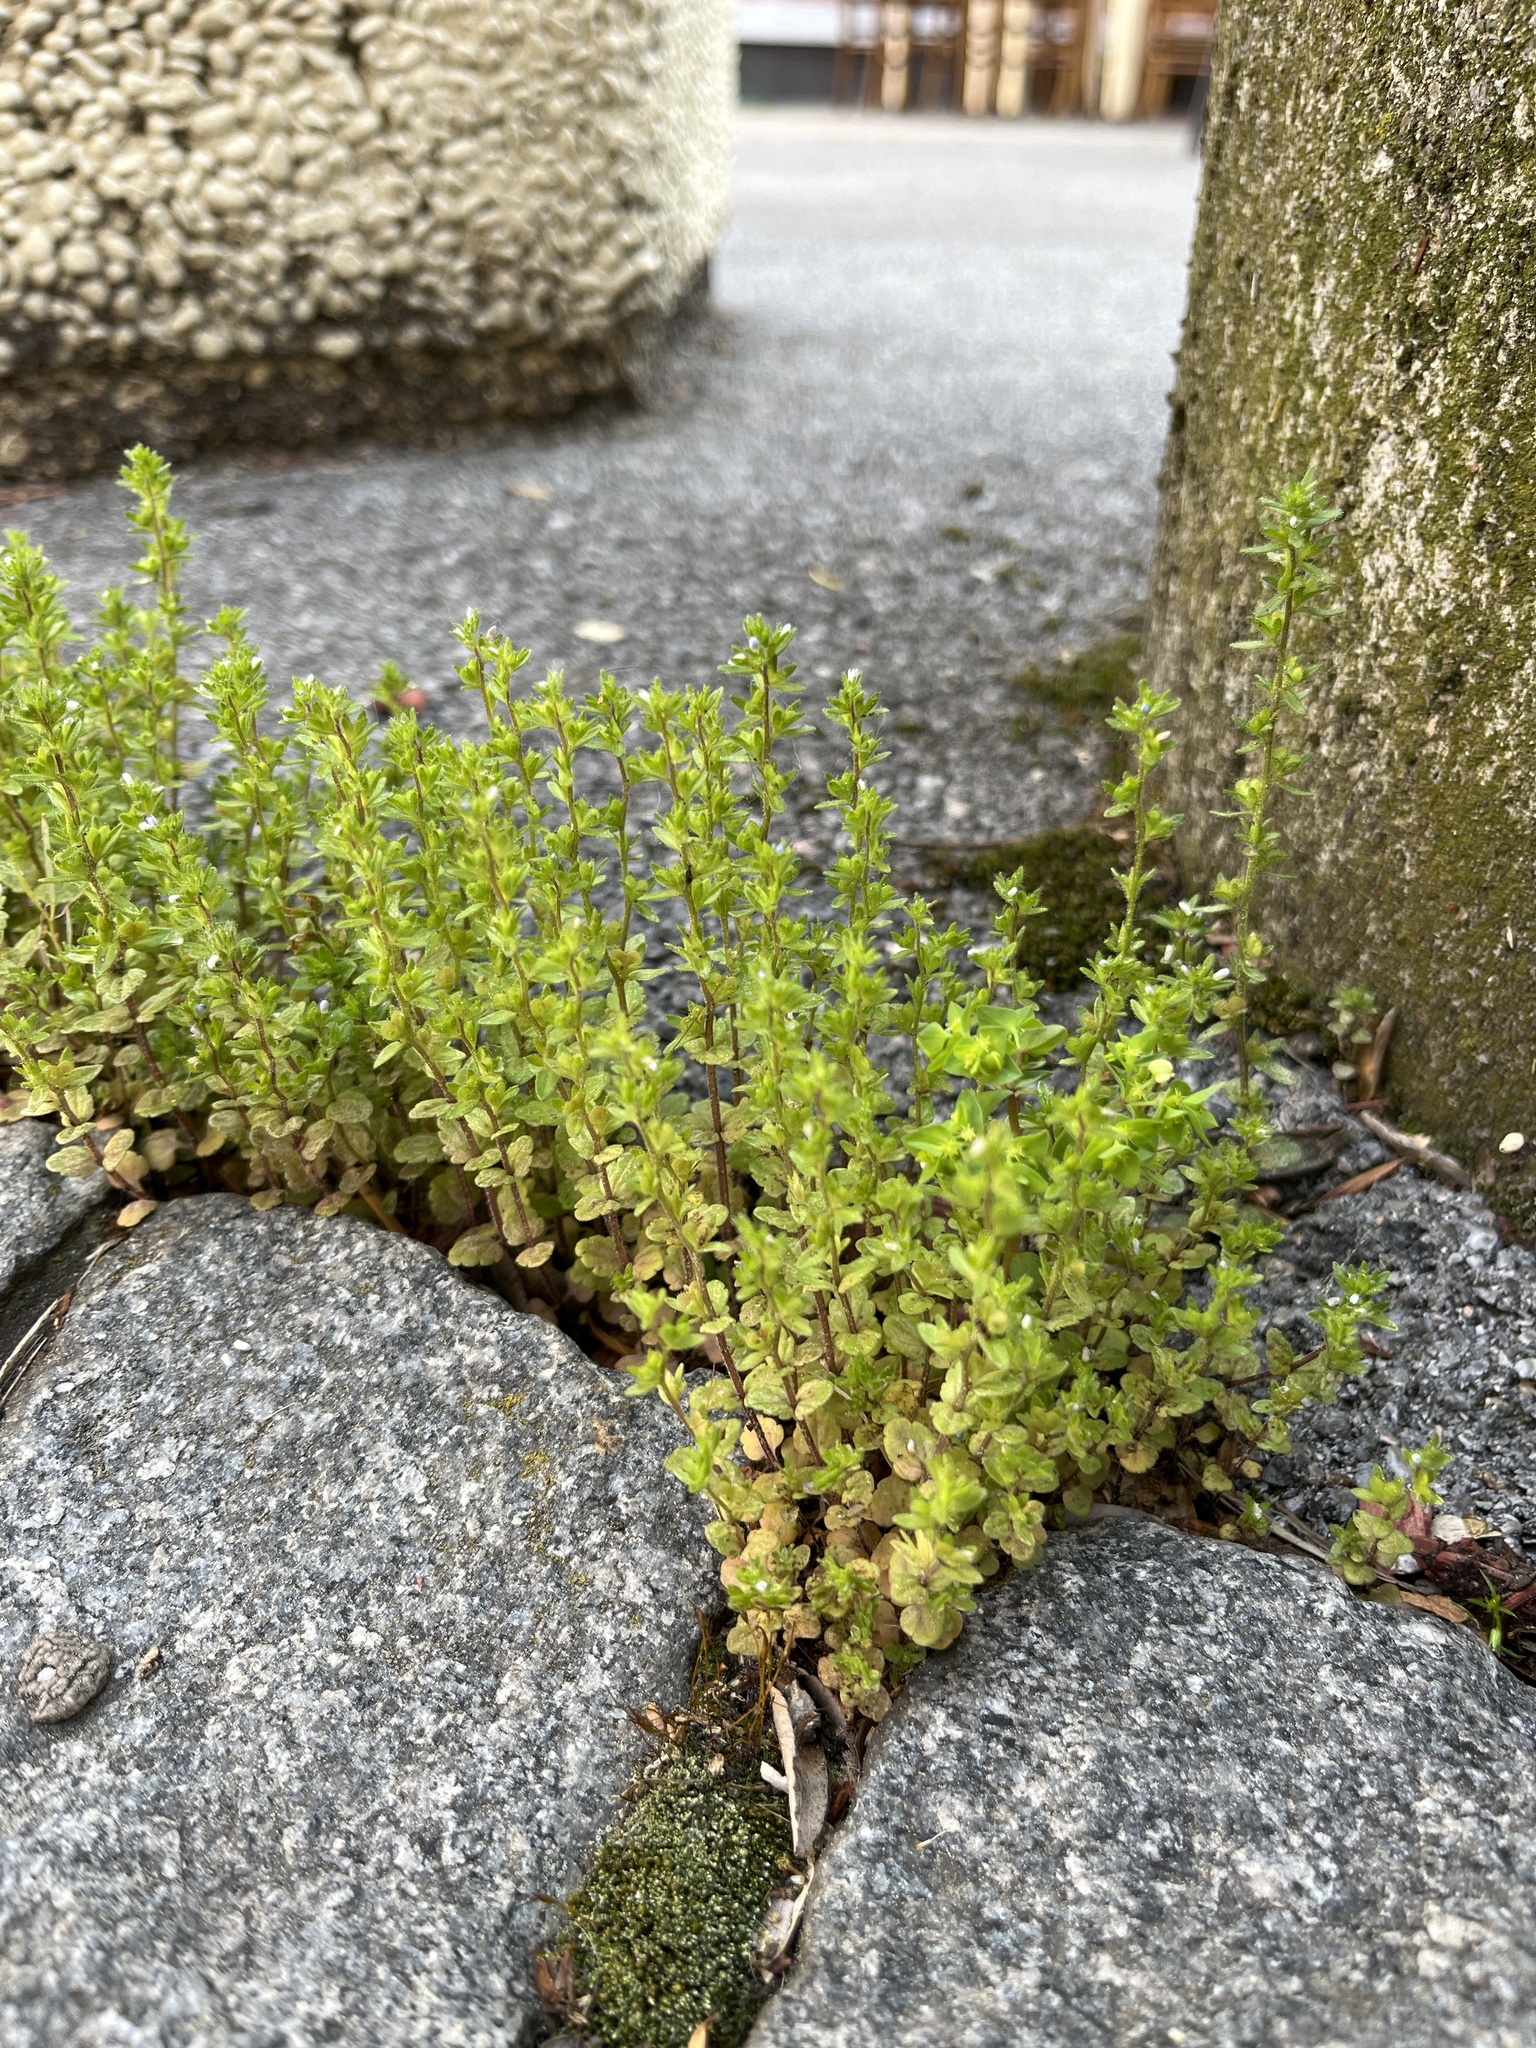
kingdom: Plantae
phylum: Tracheophyta
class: Magnoliopsida
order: Lamiales
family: Plantaginaceae
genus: Veronica
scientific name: Veronica arvensis
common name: Corn speedwell
